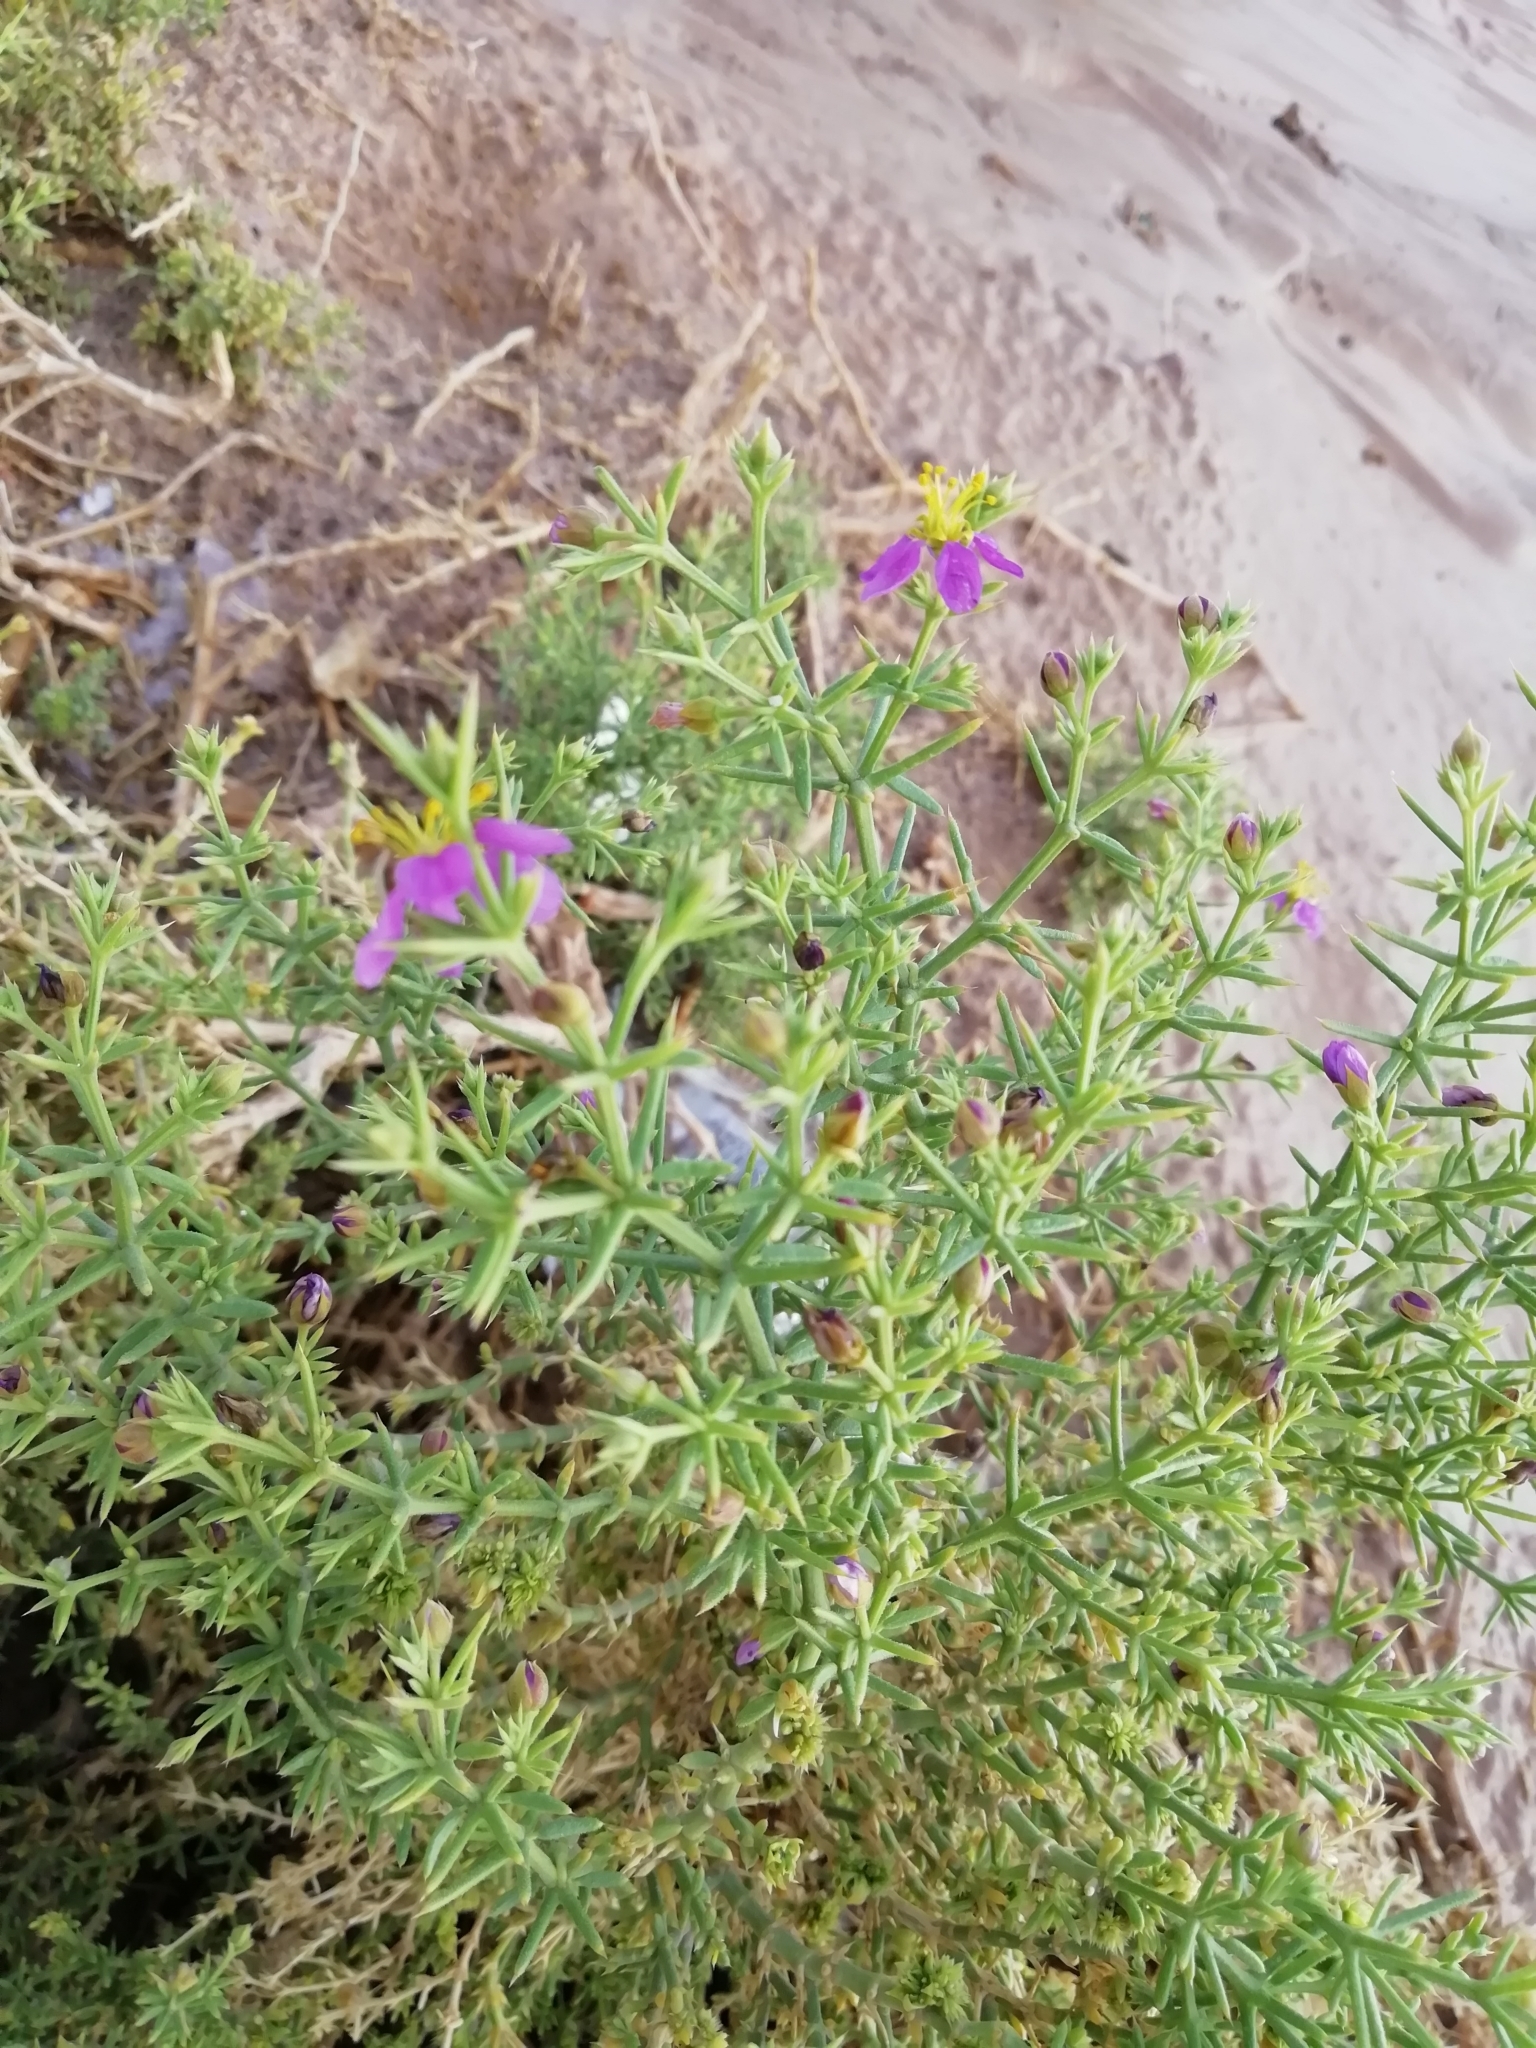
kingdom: Plantae
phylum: Tracheophyta
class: Magnoliopsida
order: Zygophyllales
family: Zygophyllaceae
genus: Fagonia
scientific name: Fagonia arabica
